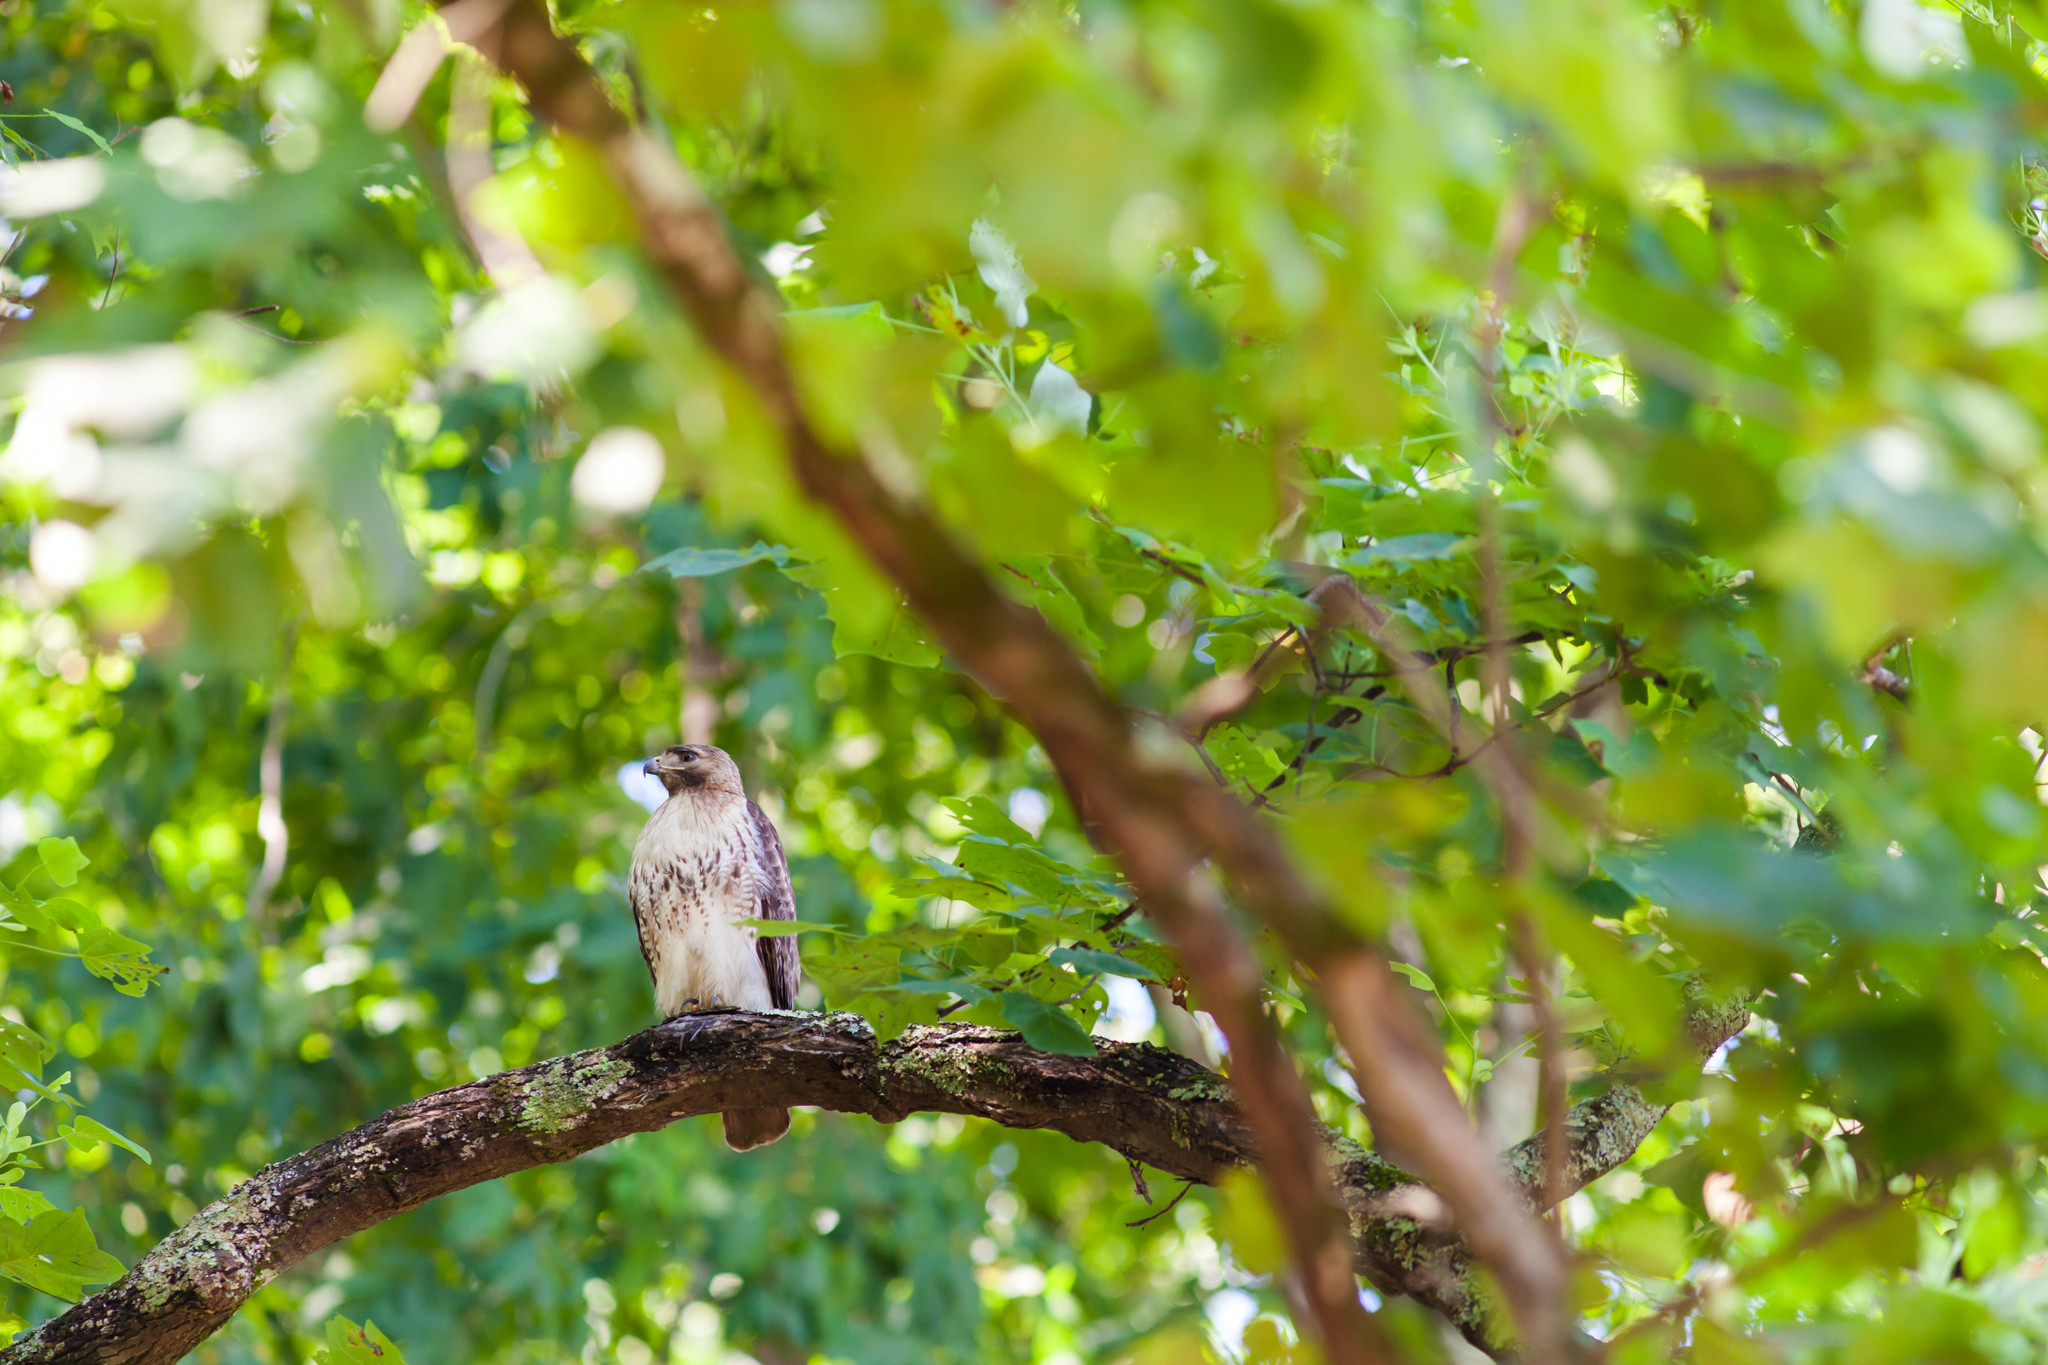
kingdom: Animalia
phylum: Chordata
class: Aves
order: Accipitriformes
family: Accipitridae
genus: Buteo
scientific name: Buteo jamaicensis
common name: Red-tailed hawk
